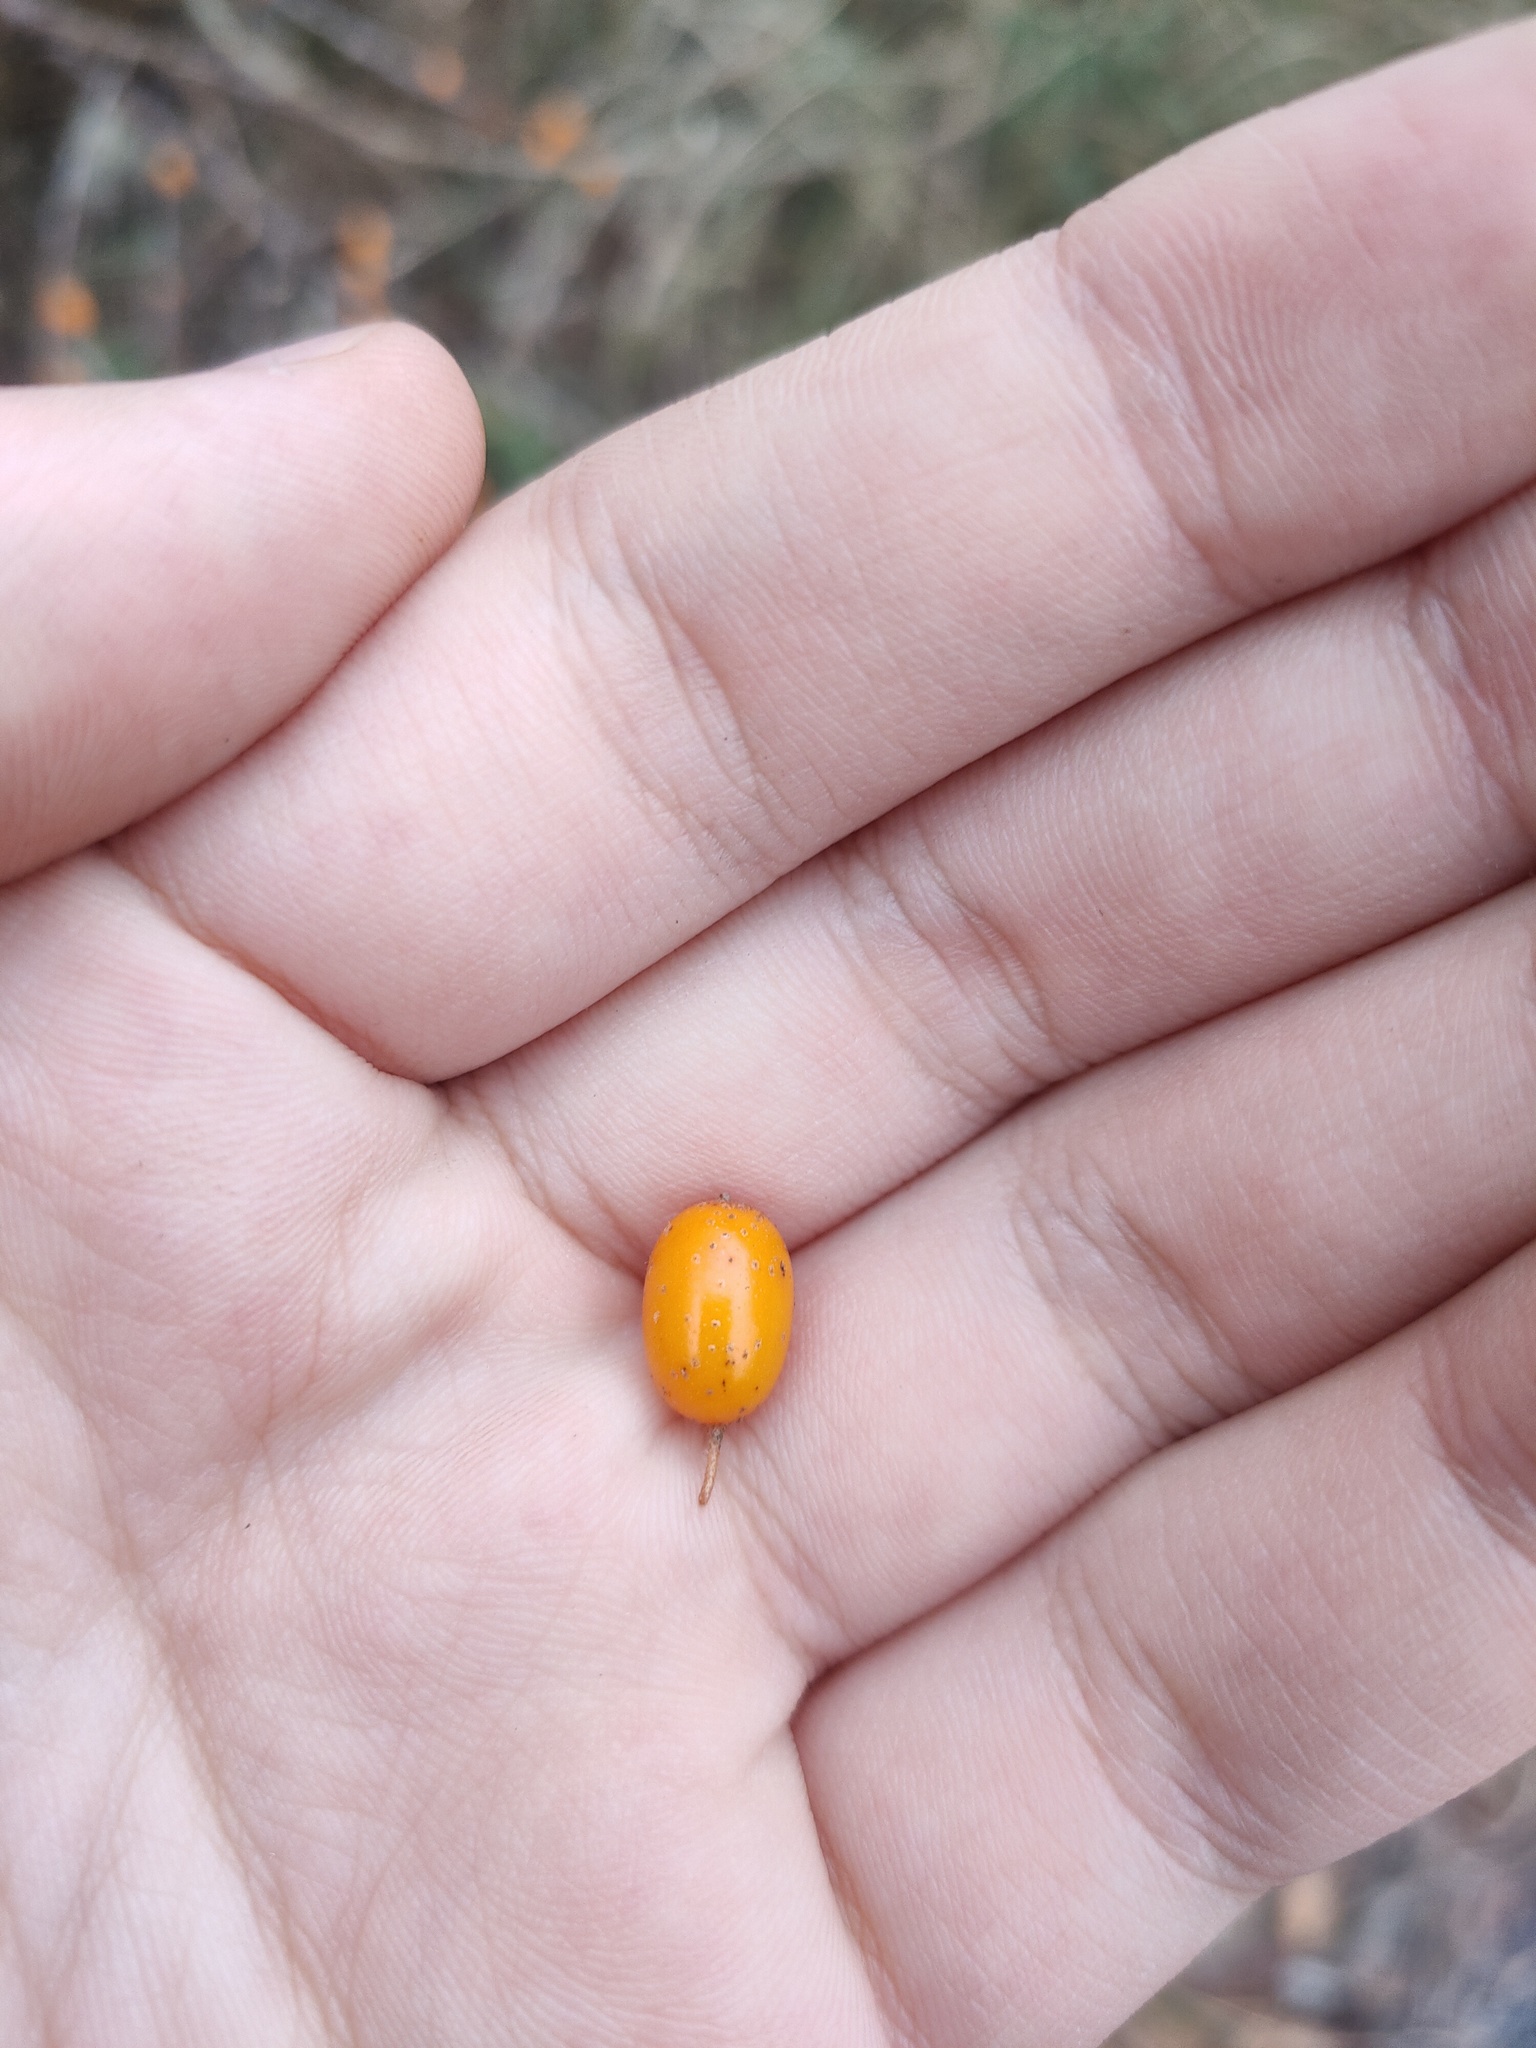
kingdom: Plantae
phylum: Tracheophyta
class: Magnoliopsida
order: Rosales
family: Elaeagnaceae
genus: Hippophae
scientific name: Hippophae rhamnoides
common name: Sea-buckthorn
